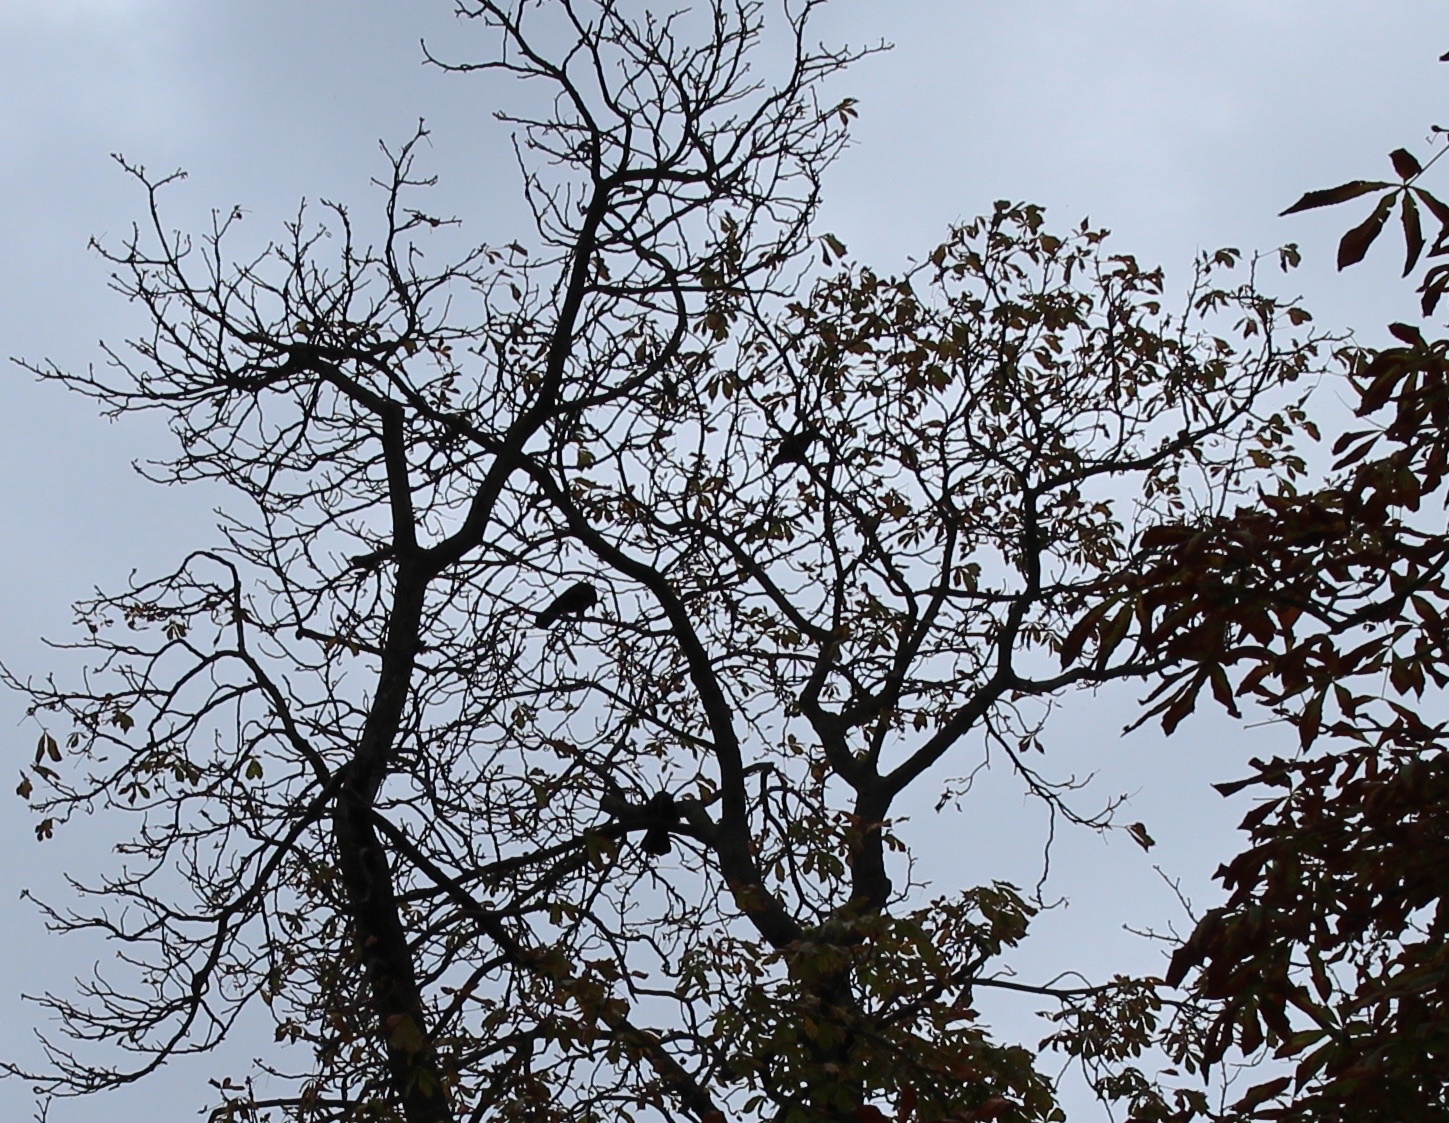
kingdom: Animalia
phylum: Chordata
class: Aves
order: Passeriformes
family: Corvidae
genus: Corvus
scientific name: Corvus
